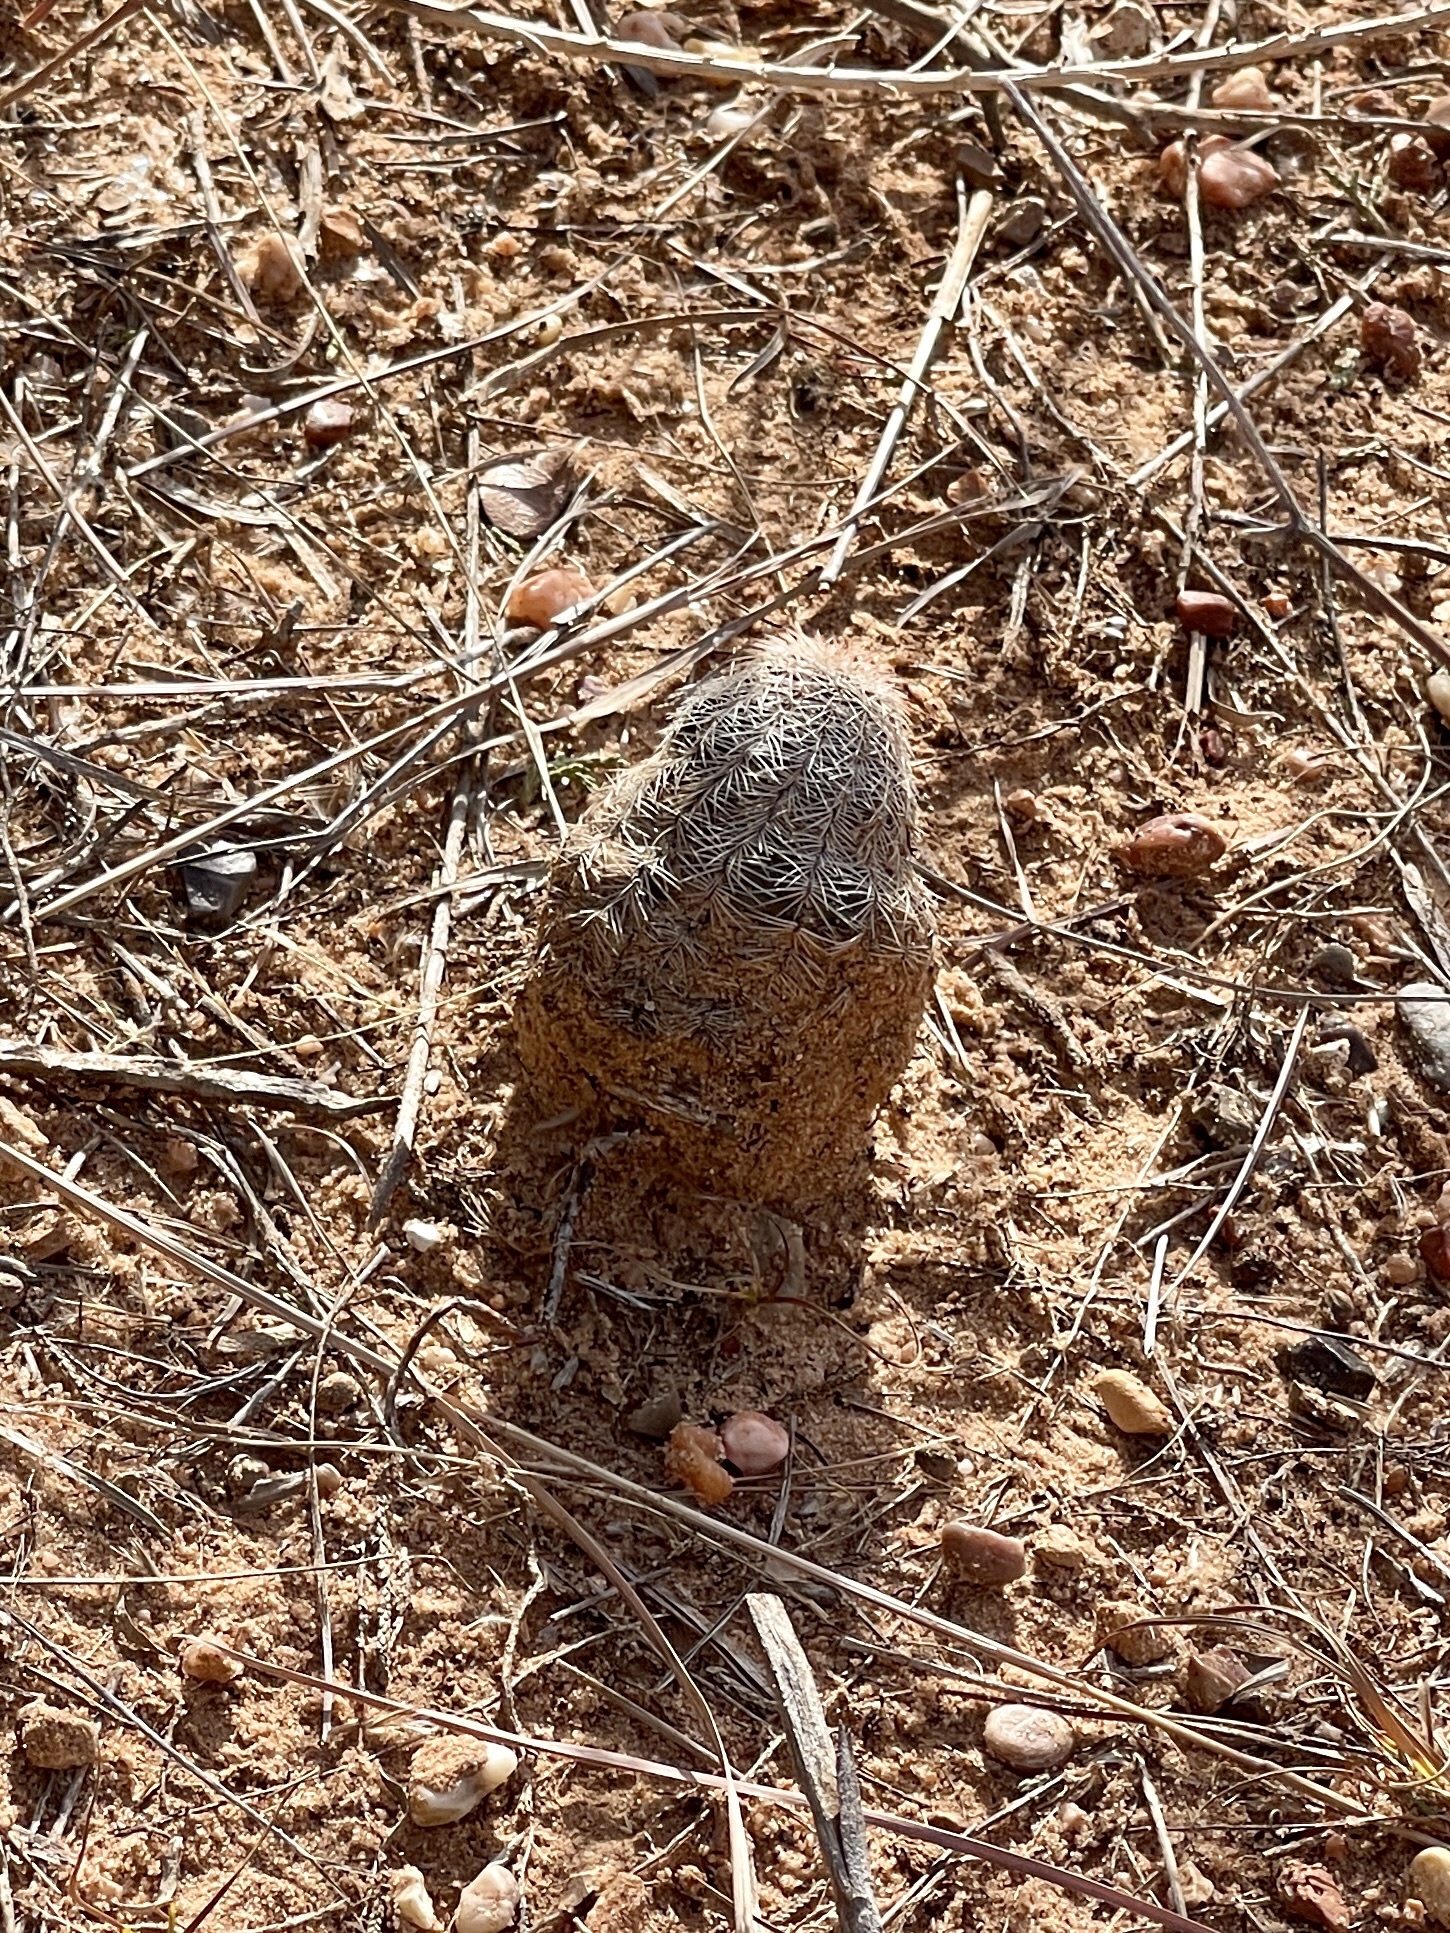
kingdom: Plantae
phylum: Tracheophyta
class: Magnoliopsida
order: Caryophyllales
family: Cactaceae
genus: Echinocereus
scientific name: Echinocereus reichenbachii
